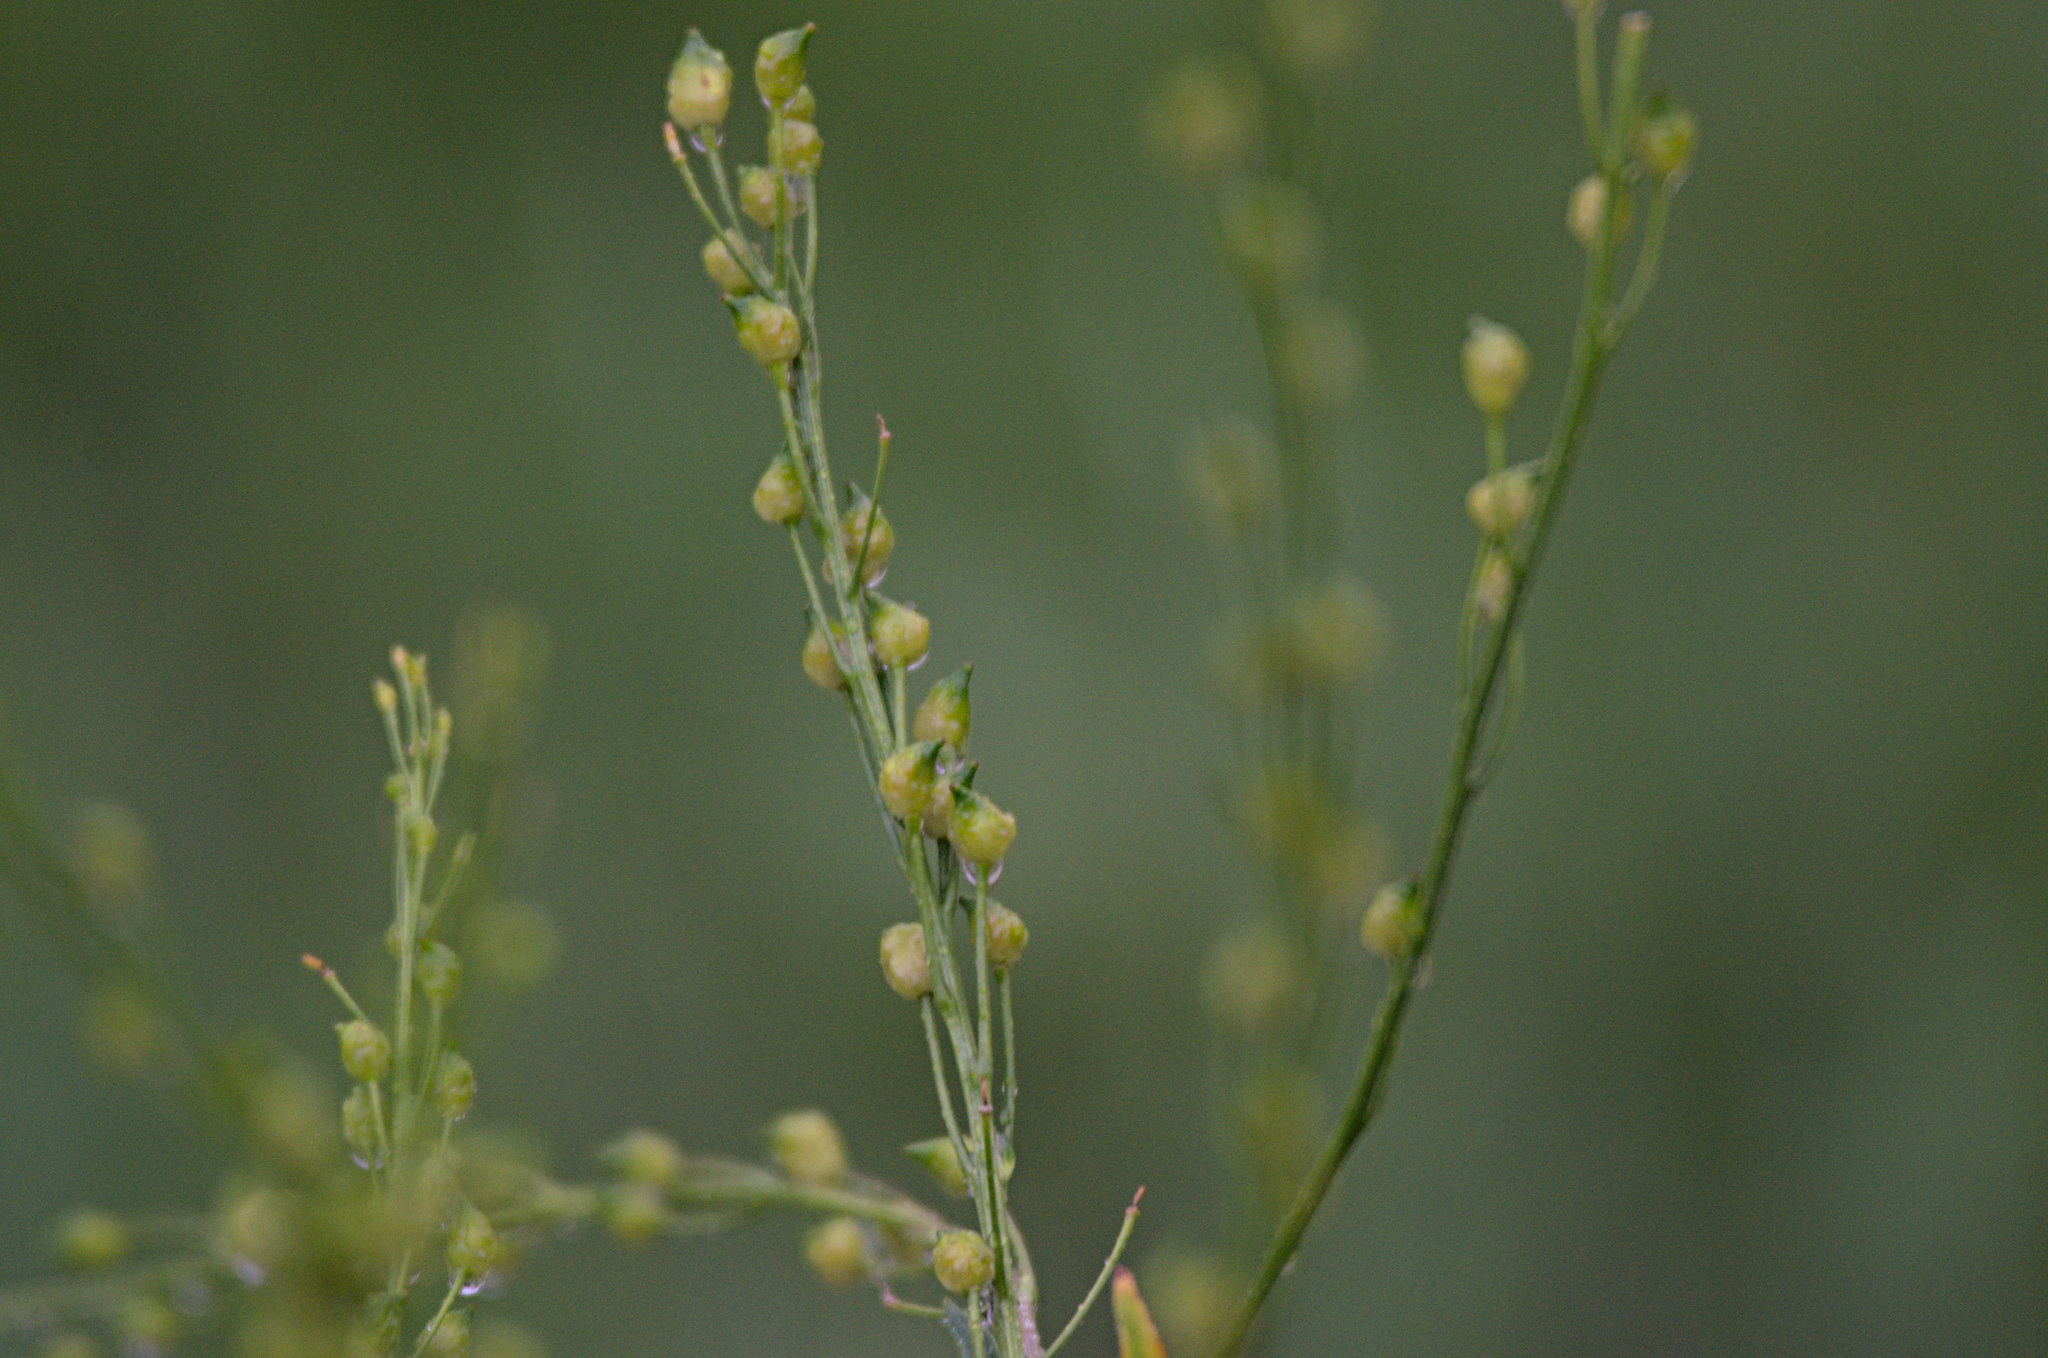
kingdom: Plantae
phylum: Tracheophyta
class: Magnoliopsida
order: Brassicales
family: Brassicaceae
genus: Bunias
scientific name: Bunias orientalis
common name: Warty-cabbage
